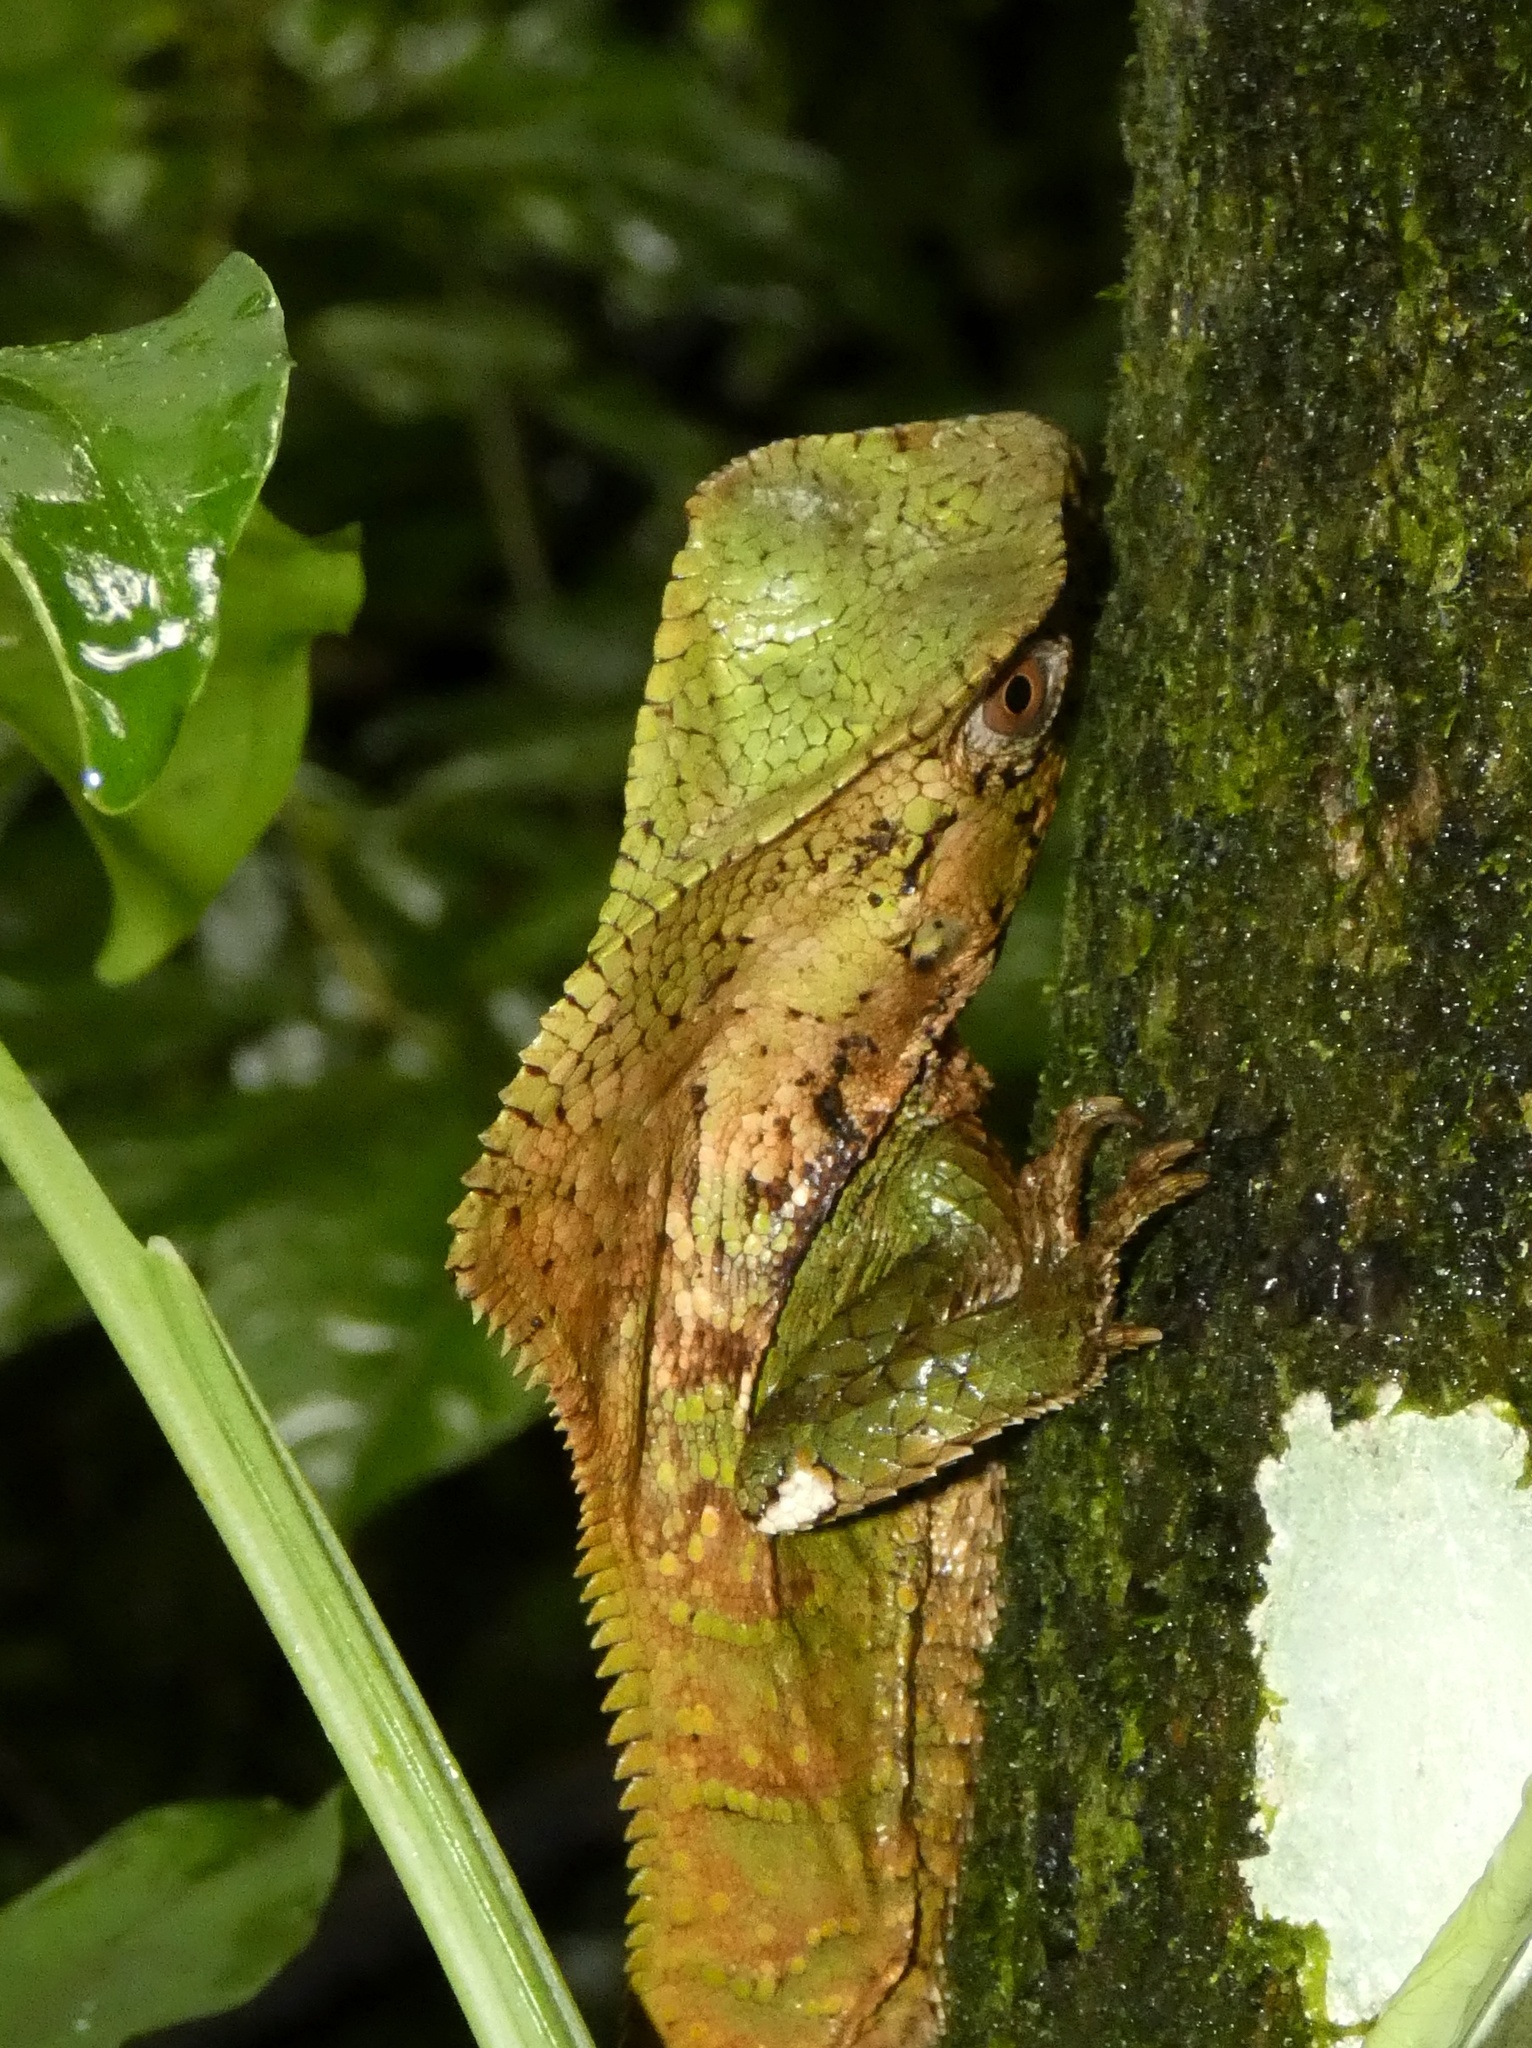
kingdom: Animalia
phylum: Chordata
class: Squamata
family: Corytophanidae
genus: Corytophanes
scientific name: Corytophanes cristatus
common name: Smooth helmeted iguana
